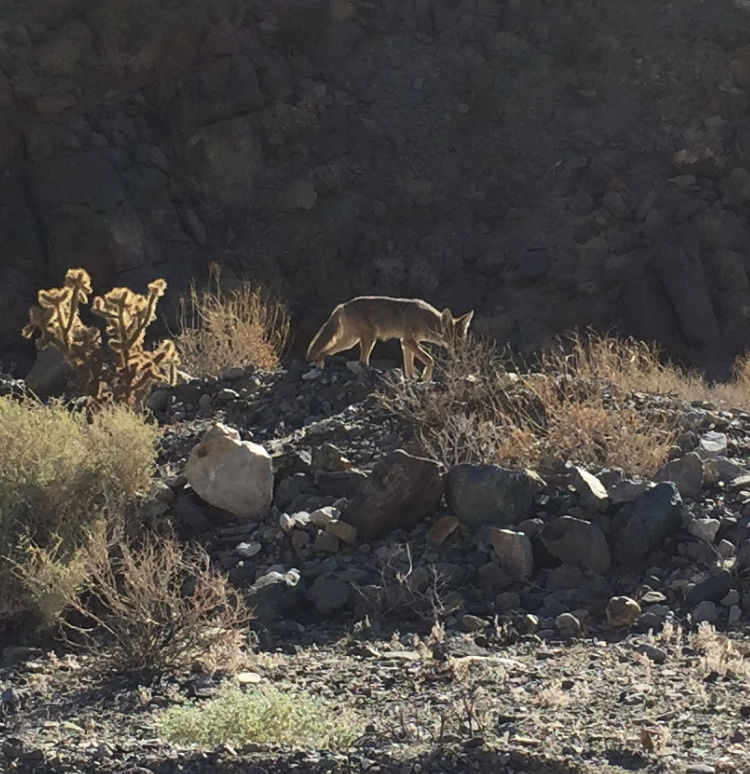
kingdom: Animalia
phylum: Chordata
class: Mammalia
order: Carnivora
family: Canidae
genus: Canis
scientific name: Canis latrans
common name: Coyote
